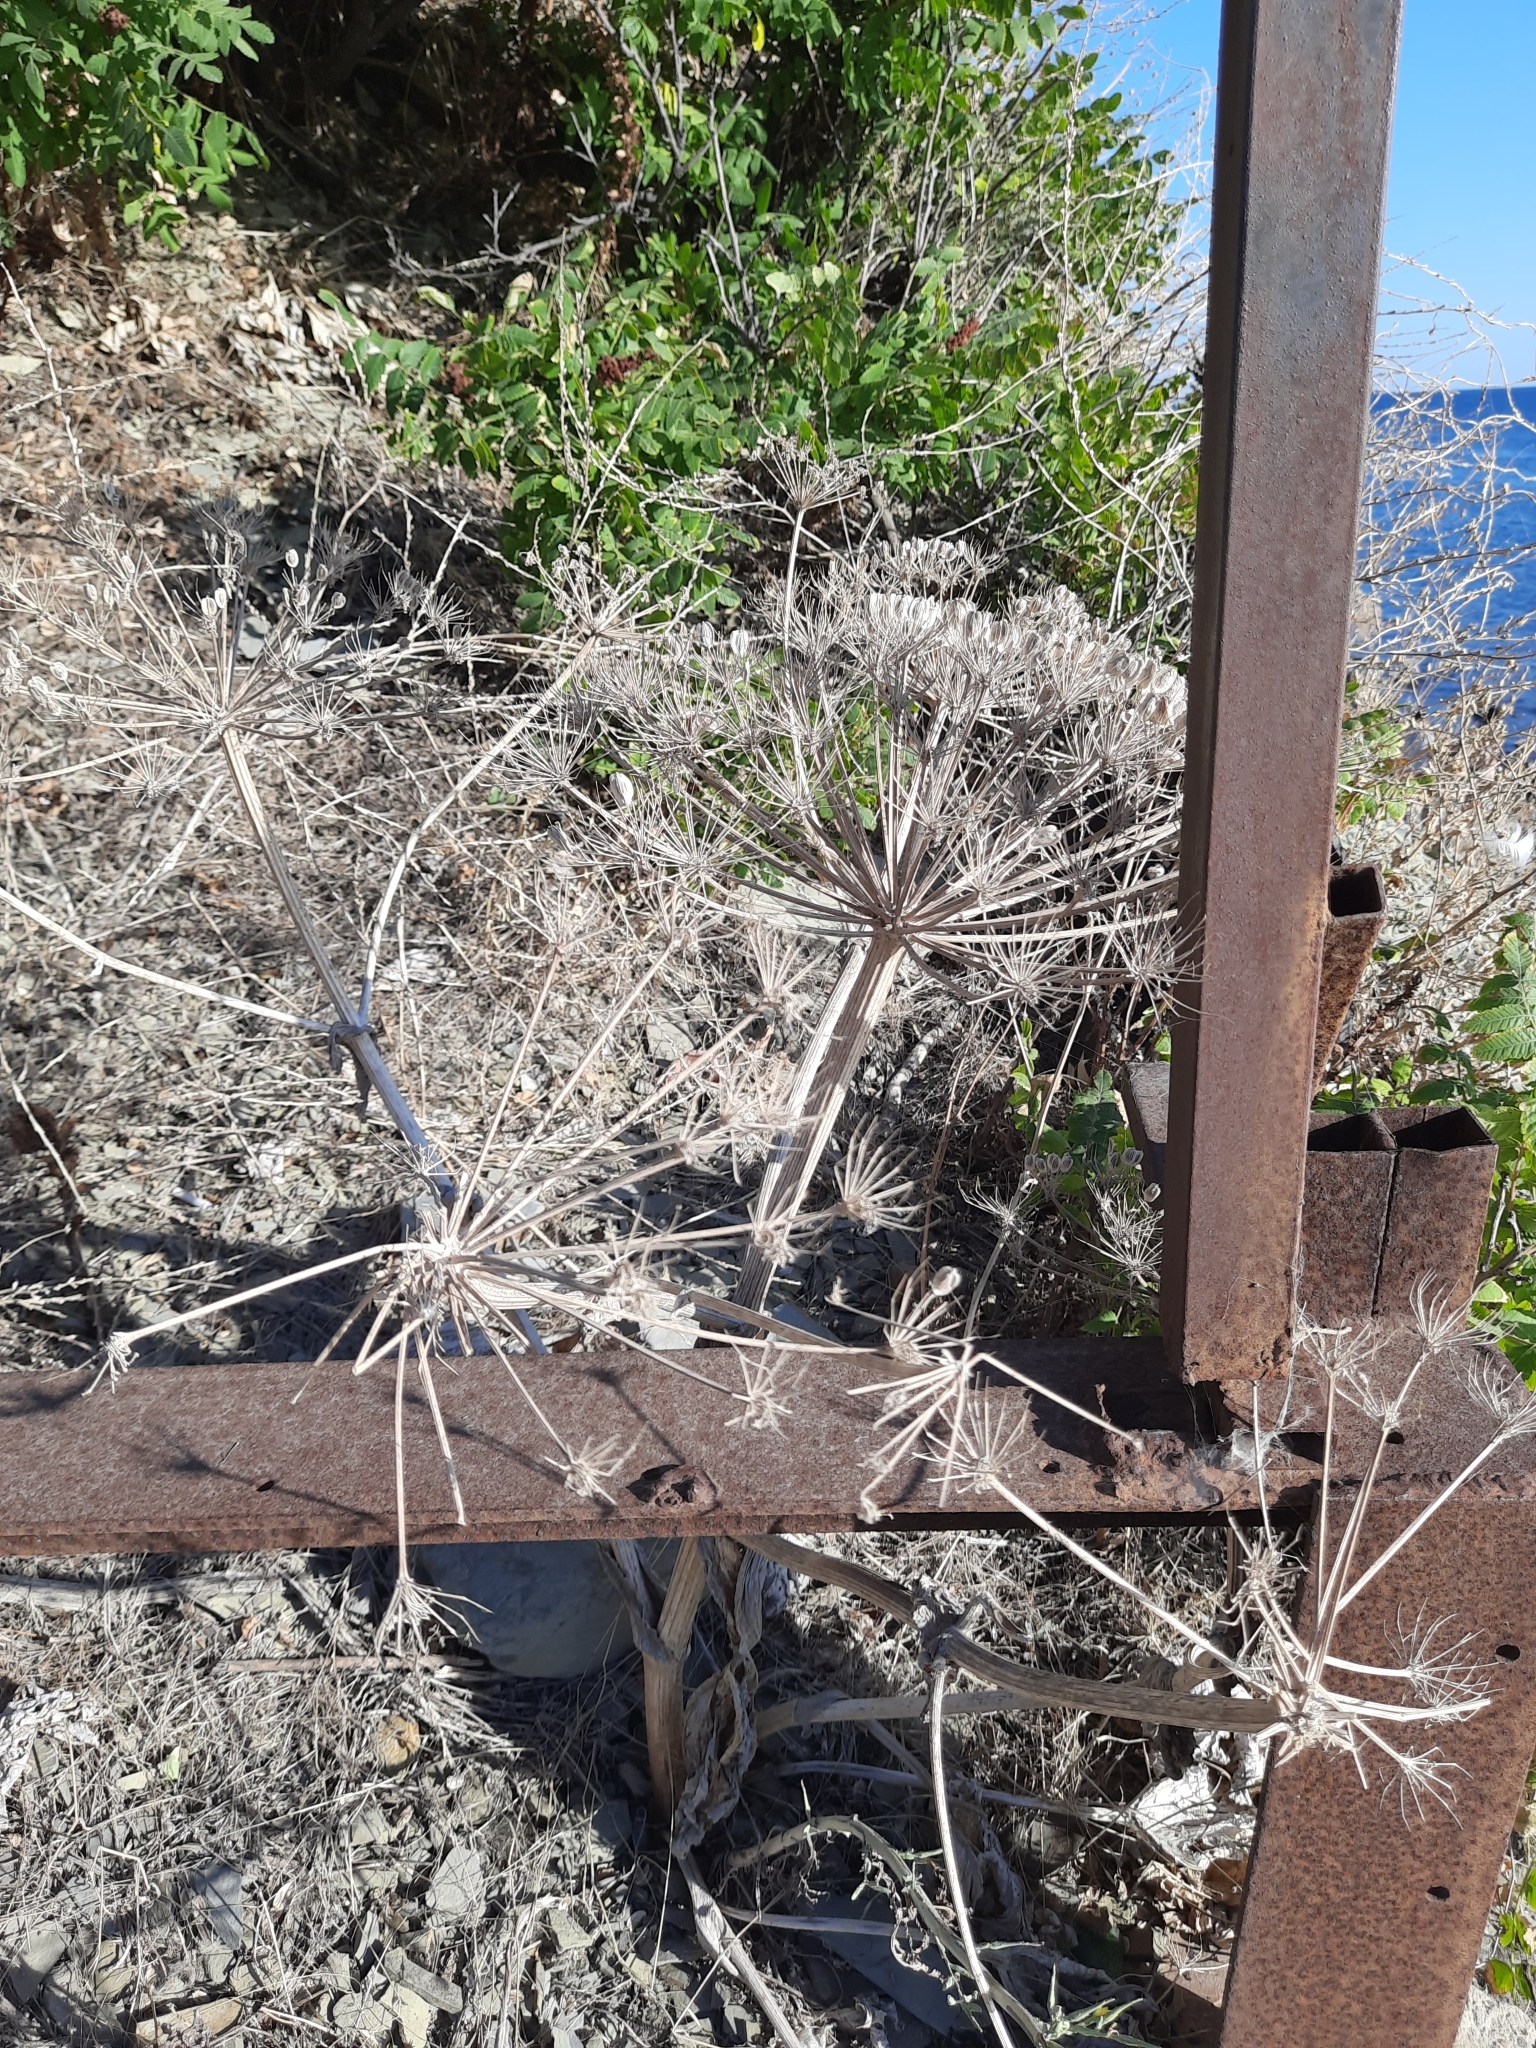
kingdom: Plantae
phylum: Tracheophyta
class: Magnoliopsida
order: Apiales
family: Apiaceae
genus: Heracleum
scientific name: Heracleum stevenii
